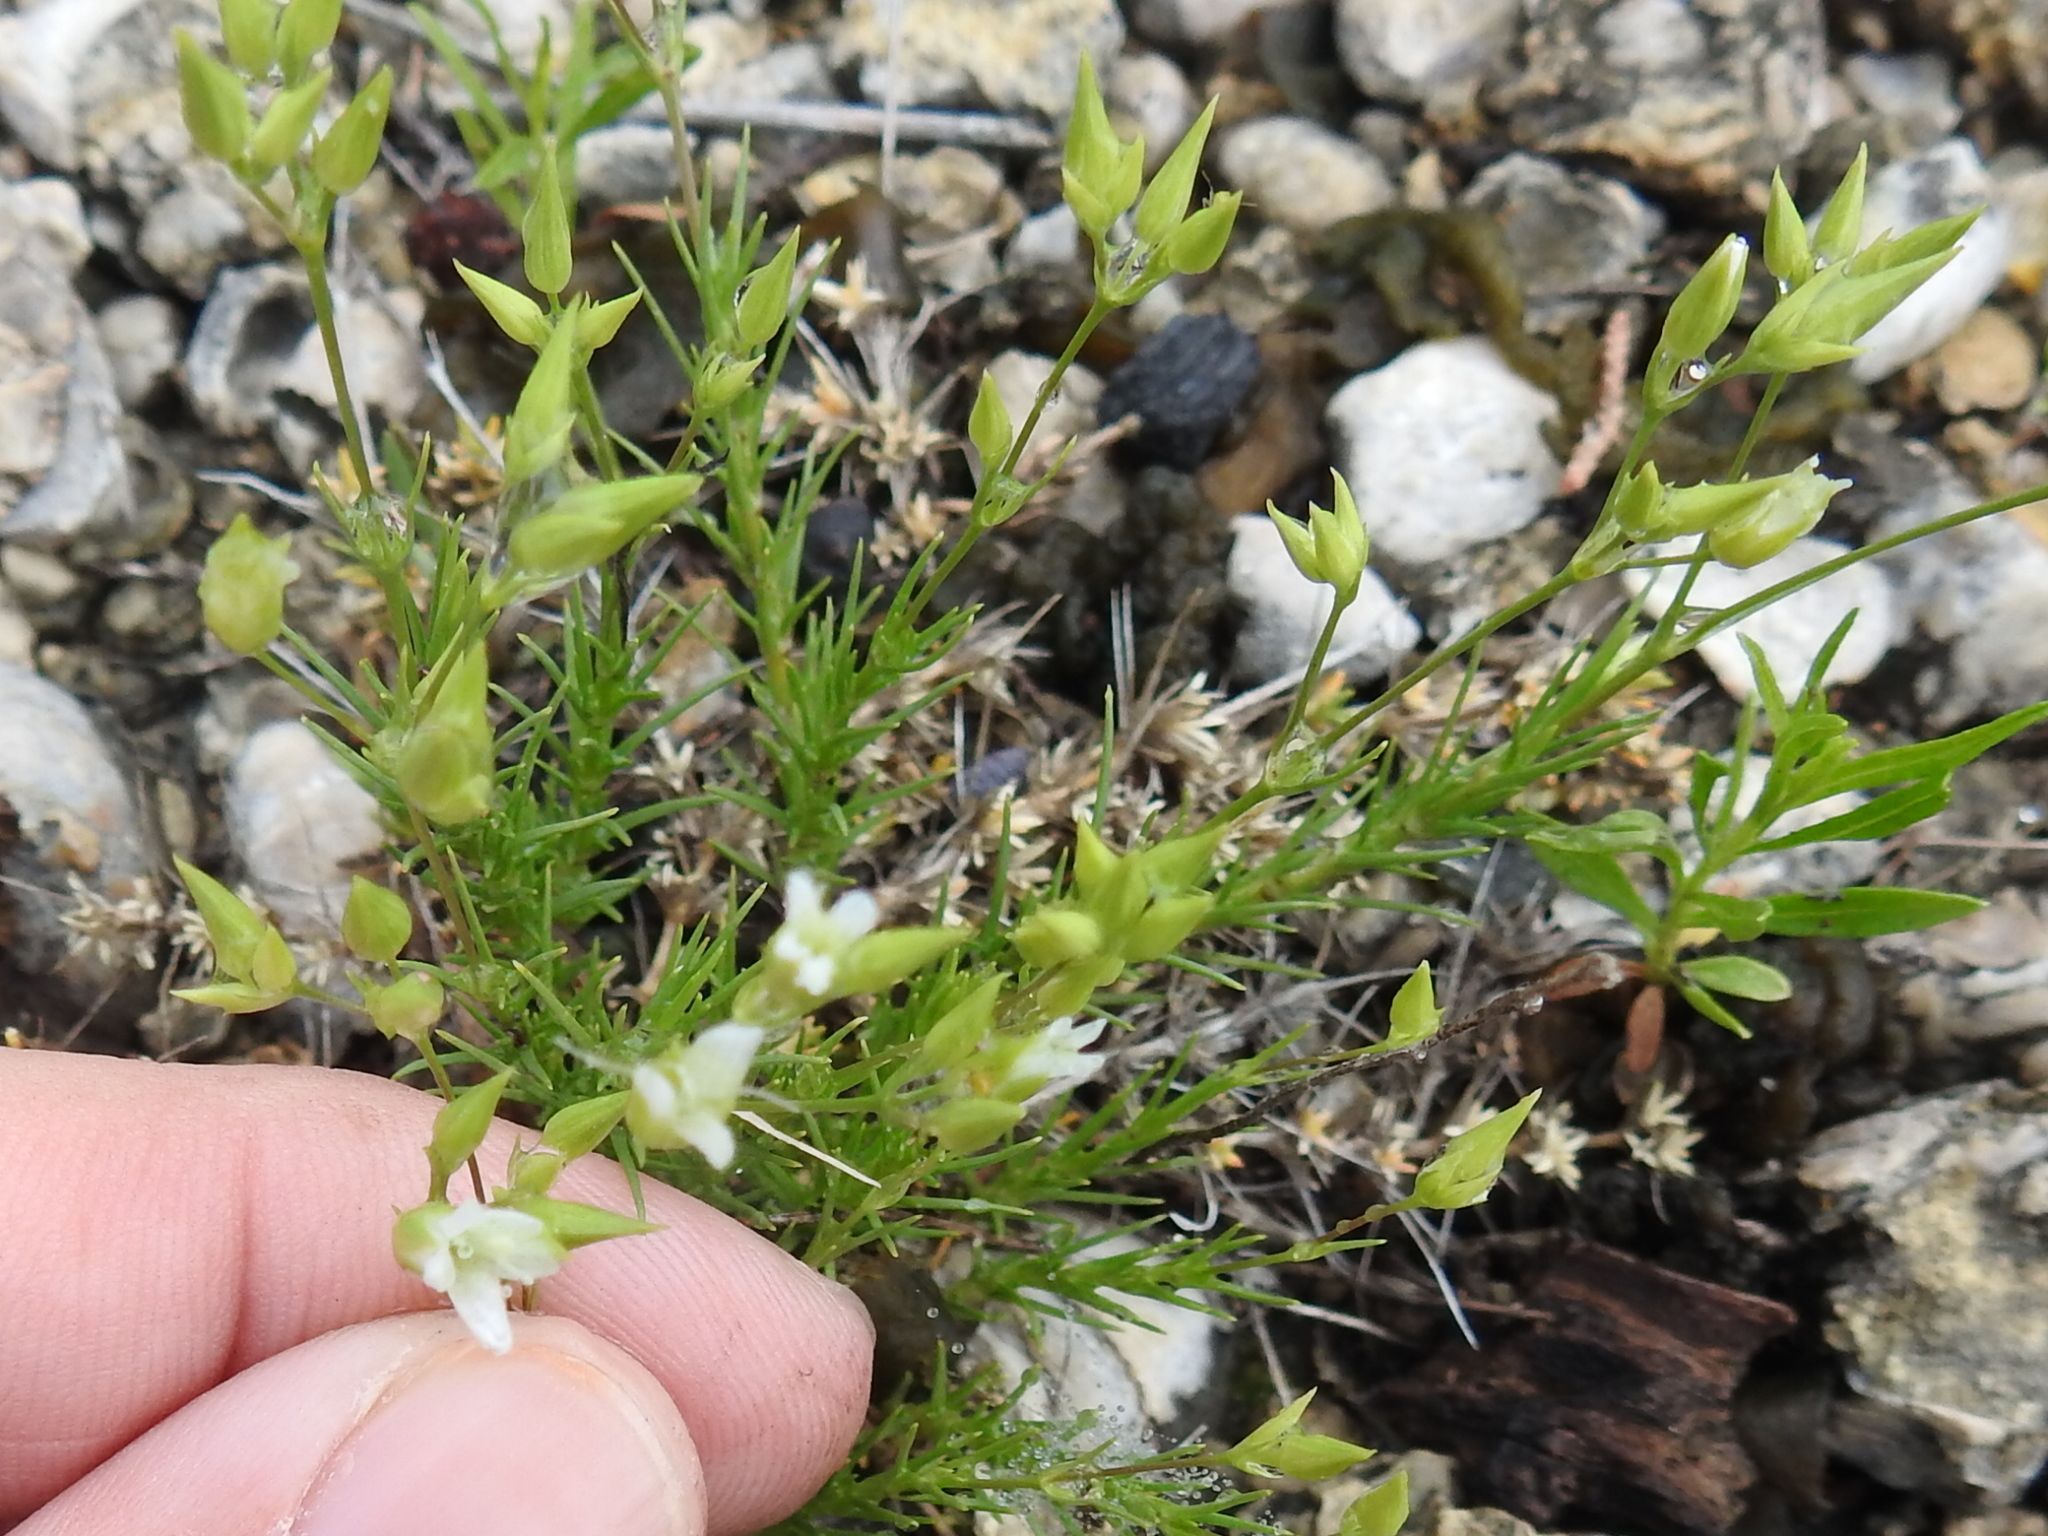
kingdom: Plantae
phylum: Tracheophyta
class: Magnoliopsida
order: Caryophyllales
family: Caryophyllaceae
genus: Sabulina
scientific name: Sabulina michauxii
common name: Michaux's stitchwort
